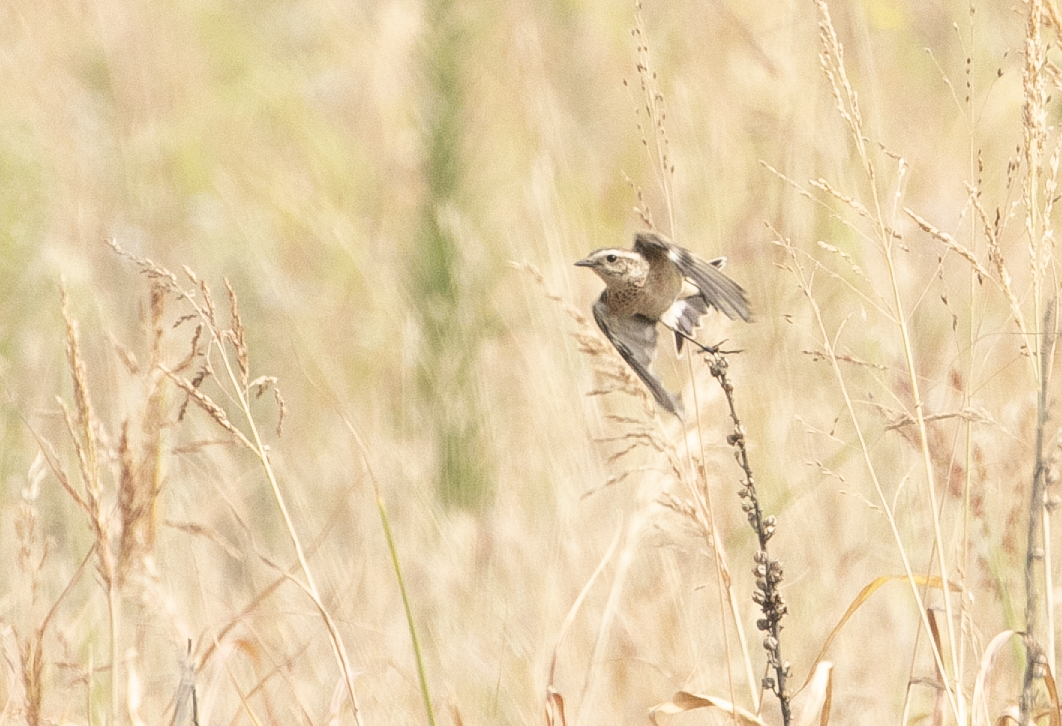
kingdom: Animalia
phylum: Chordata
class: Aves
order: Passeriformes
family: Muscicapidae
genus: Saxicola
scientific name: Saxicola rubetra
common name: Whinchat
